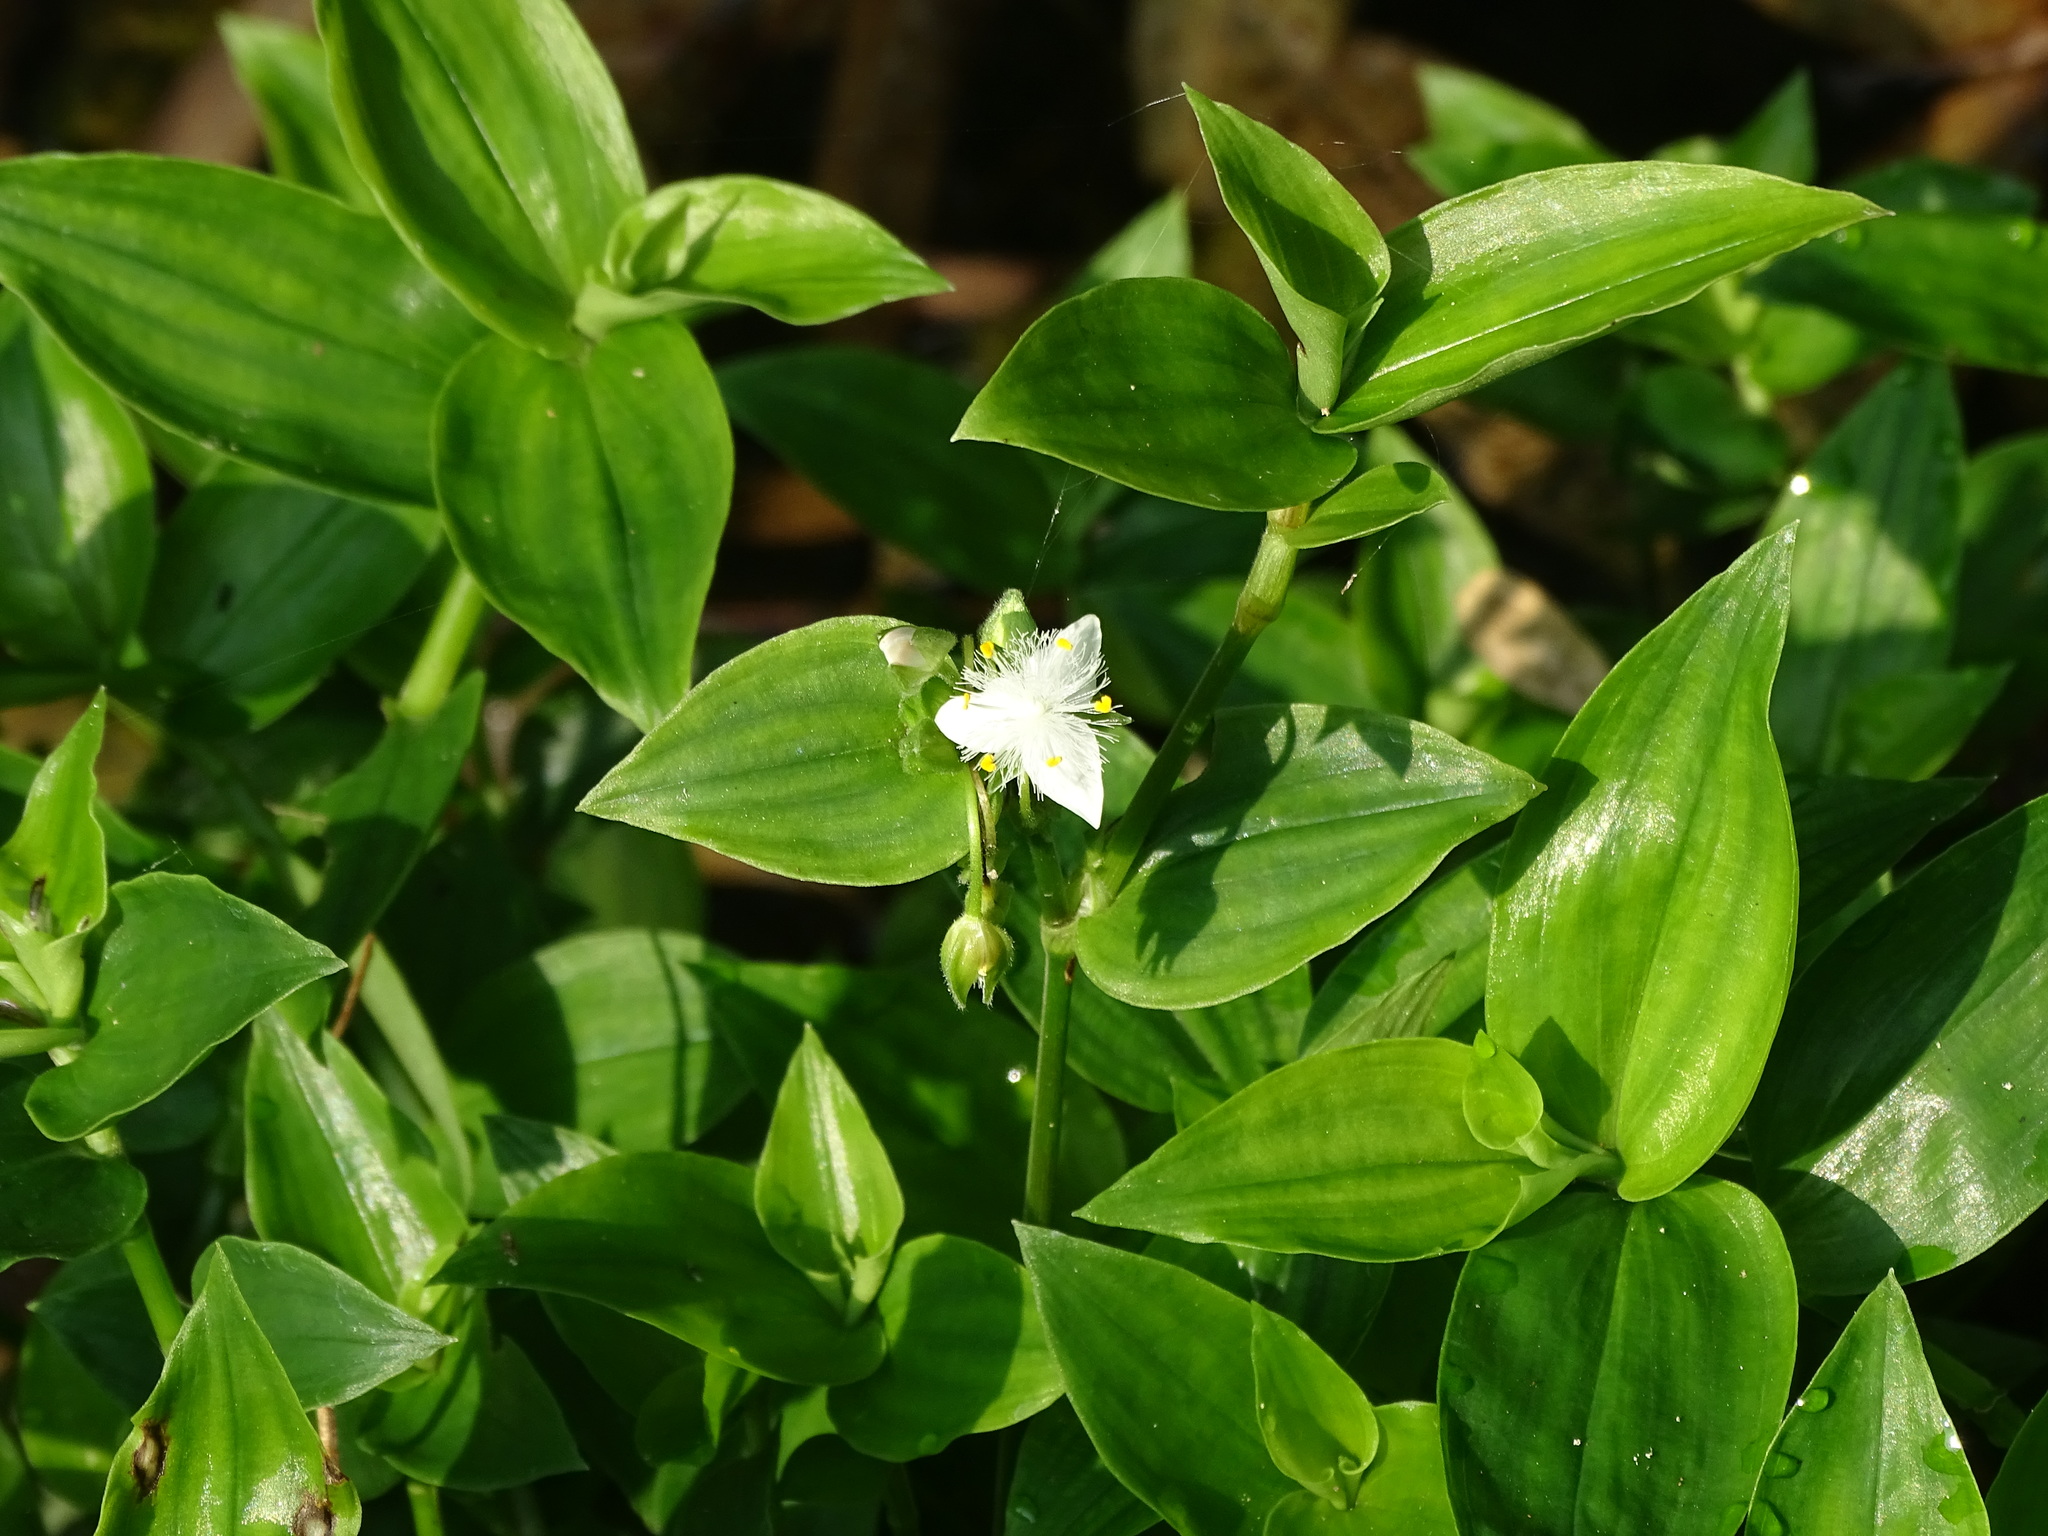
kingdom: Plantae
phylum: Tracheophyta
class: Liliopsida
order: Commelinales
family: Commelinaceae
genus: Tradescantia
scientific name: Tradescantia fluminensis
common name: Wandering-jew
